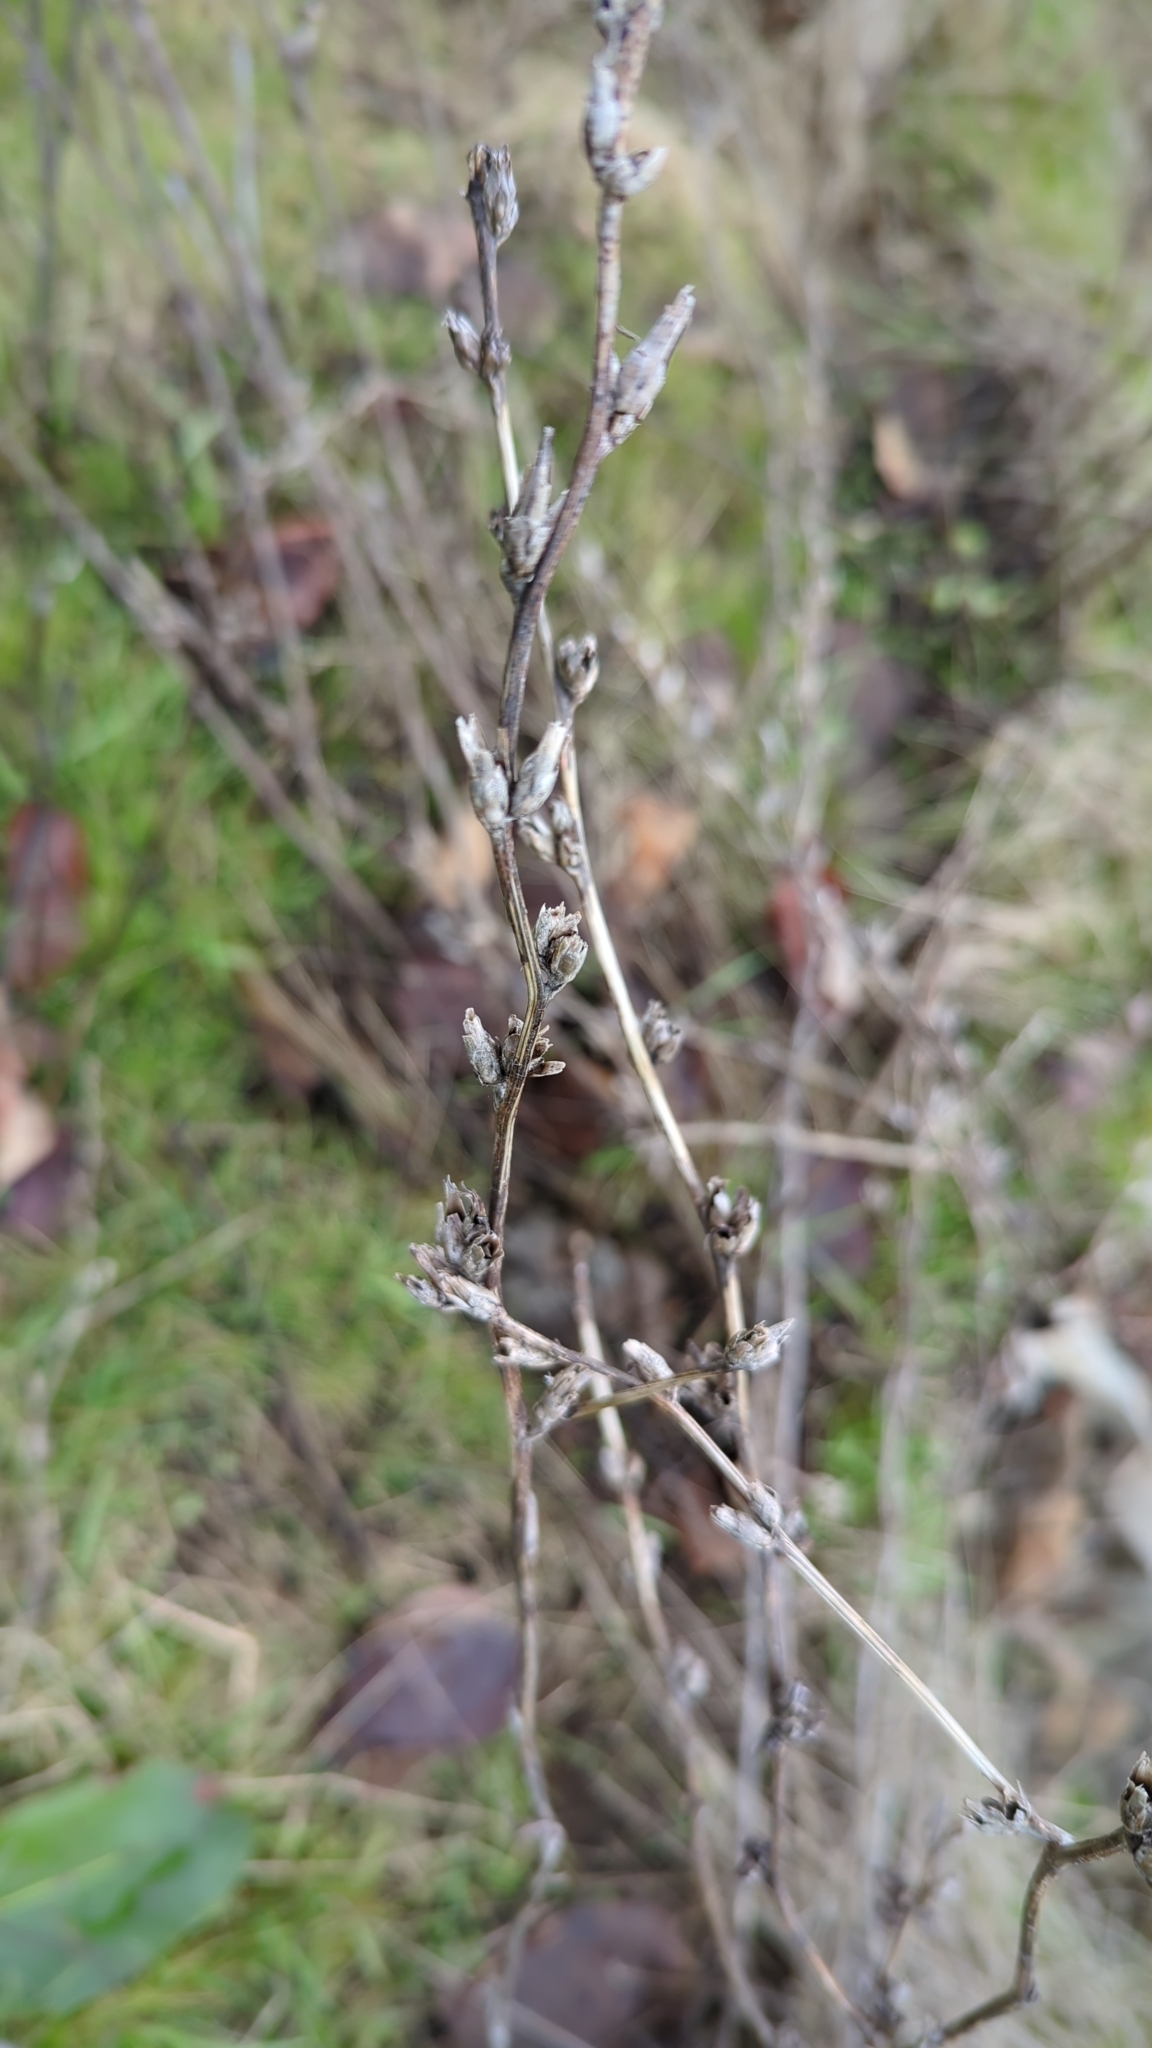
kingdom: Plantae
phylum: Tracheophyta
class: Magnoliopsida
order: Asterales
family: Asteraceae
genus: Cichorium
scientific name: Cichorium intybus
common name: Chicory
